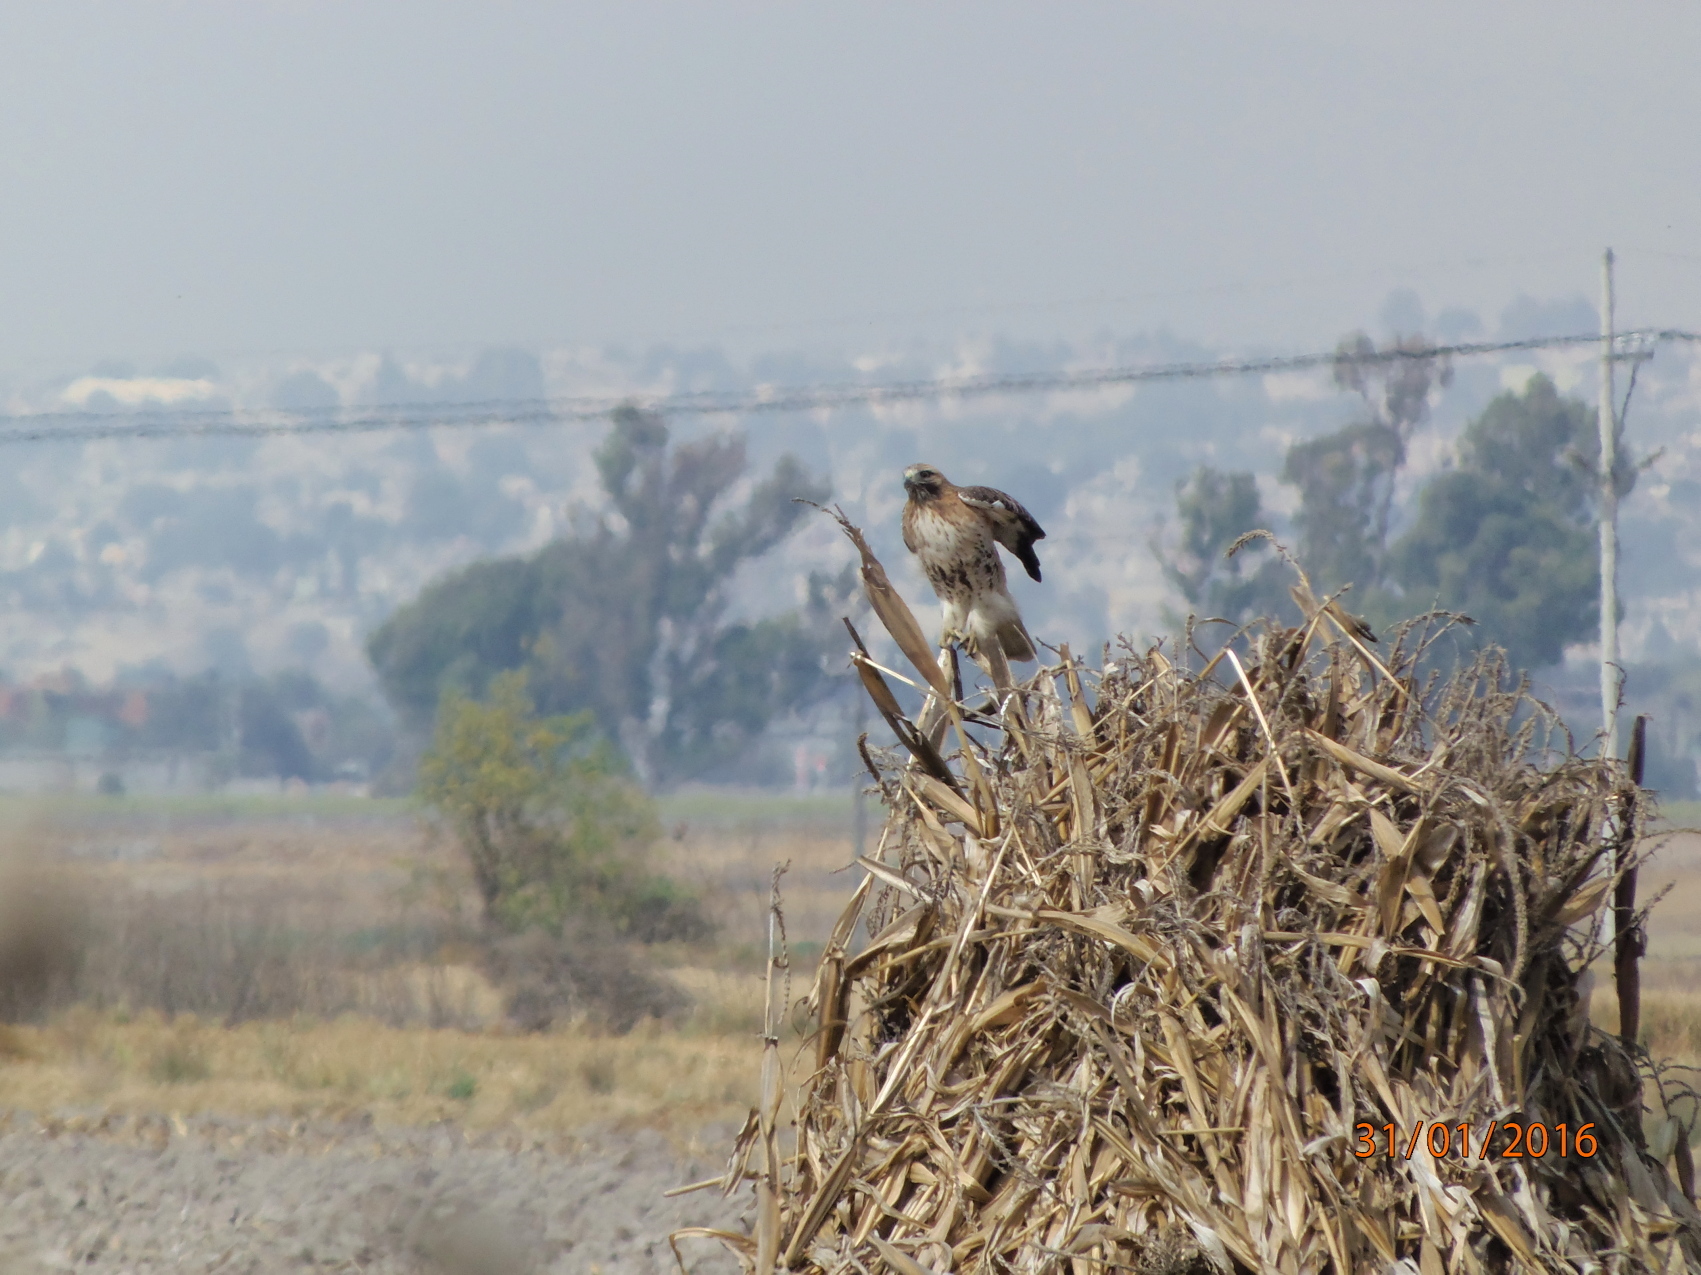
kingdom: Animalia
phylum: Chordata
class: Aves
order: Accipitriformes
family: Accipitridae
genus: Buteo
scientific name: Buteo jamaicensis
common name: Red-tailed hawk
